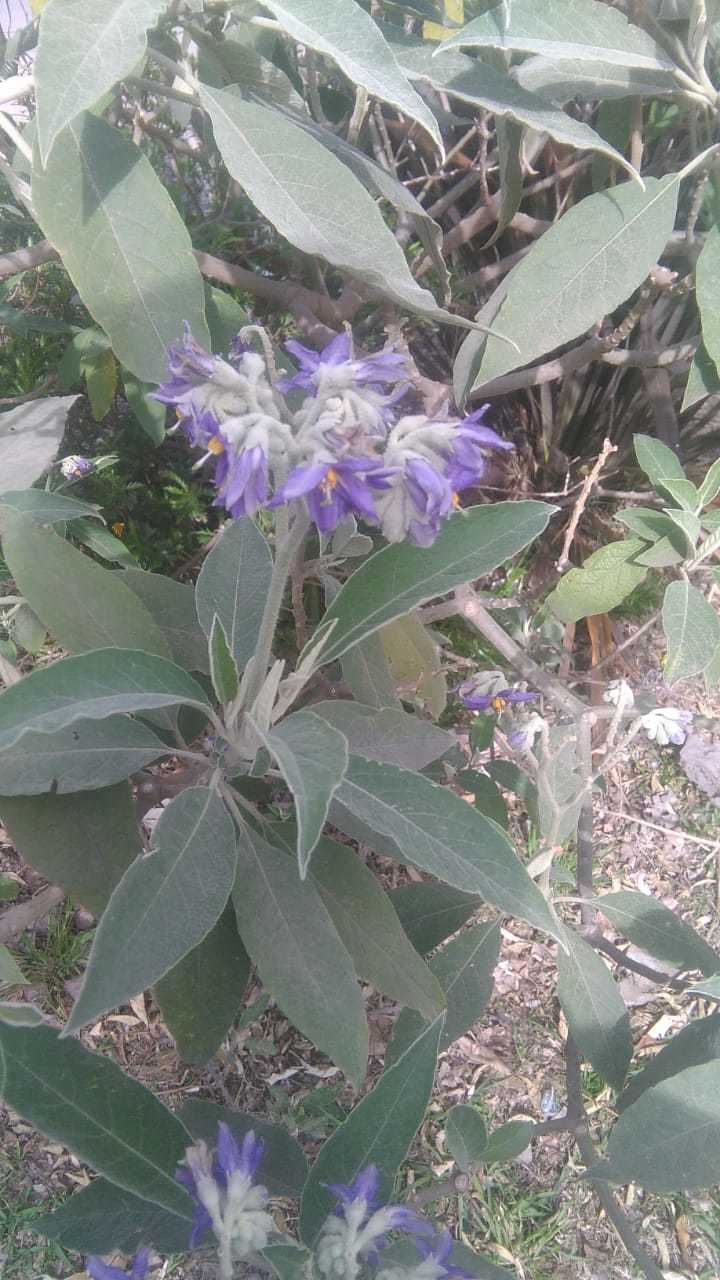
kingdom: Plantae
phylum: Tracheophyta
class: Magnoliopsida
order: Solanales
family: Solanaceae
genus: Solanum
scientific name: Solanum granulosoleprosum
